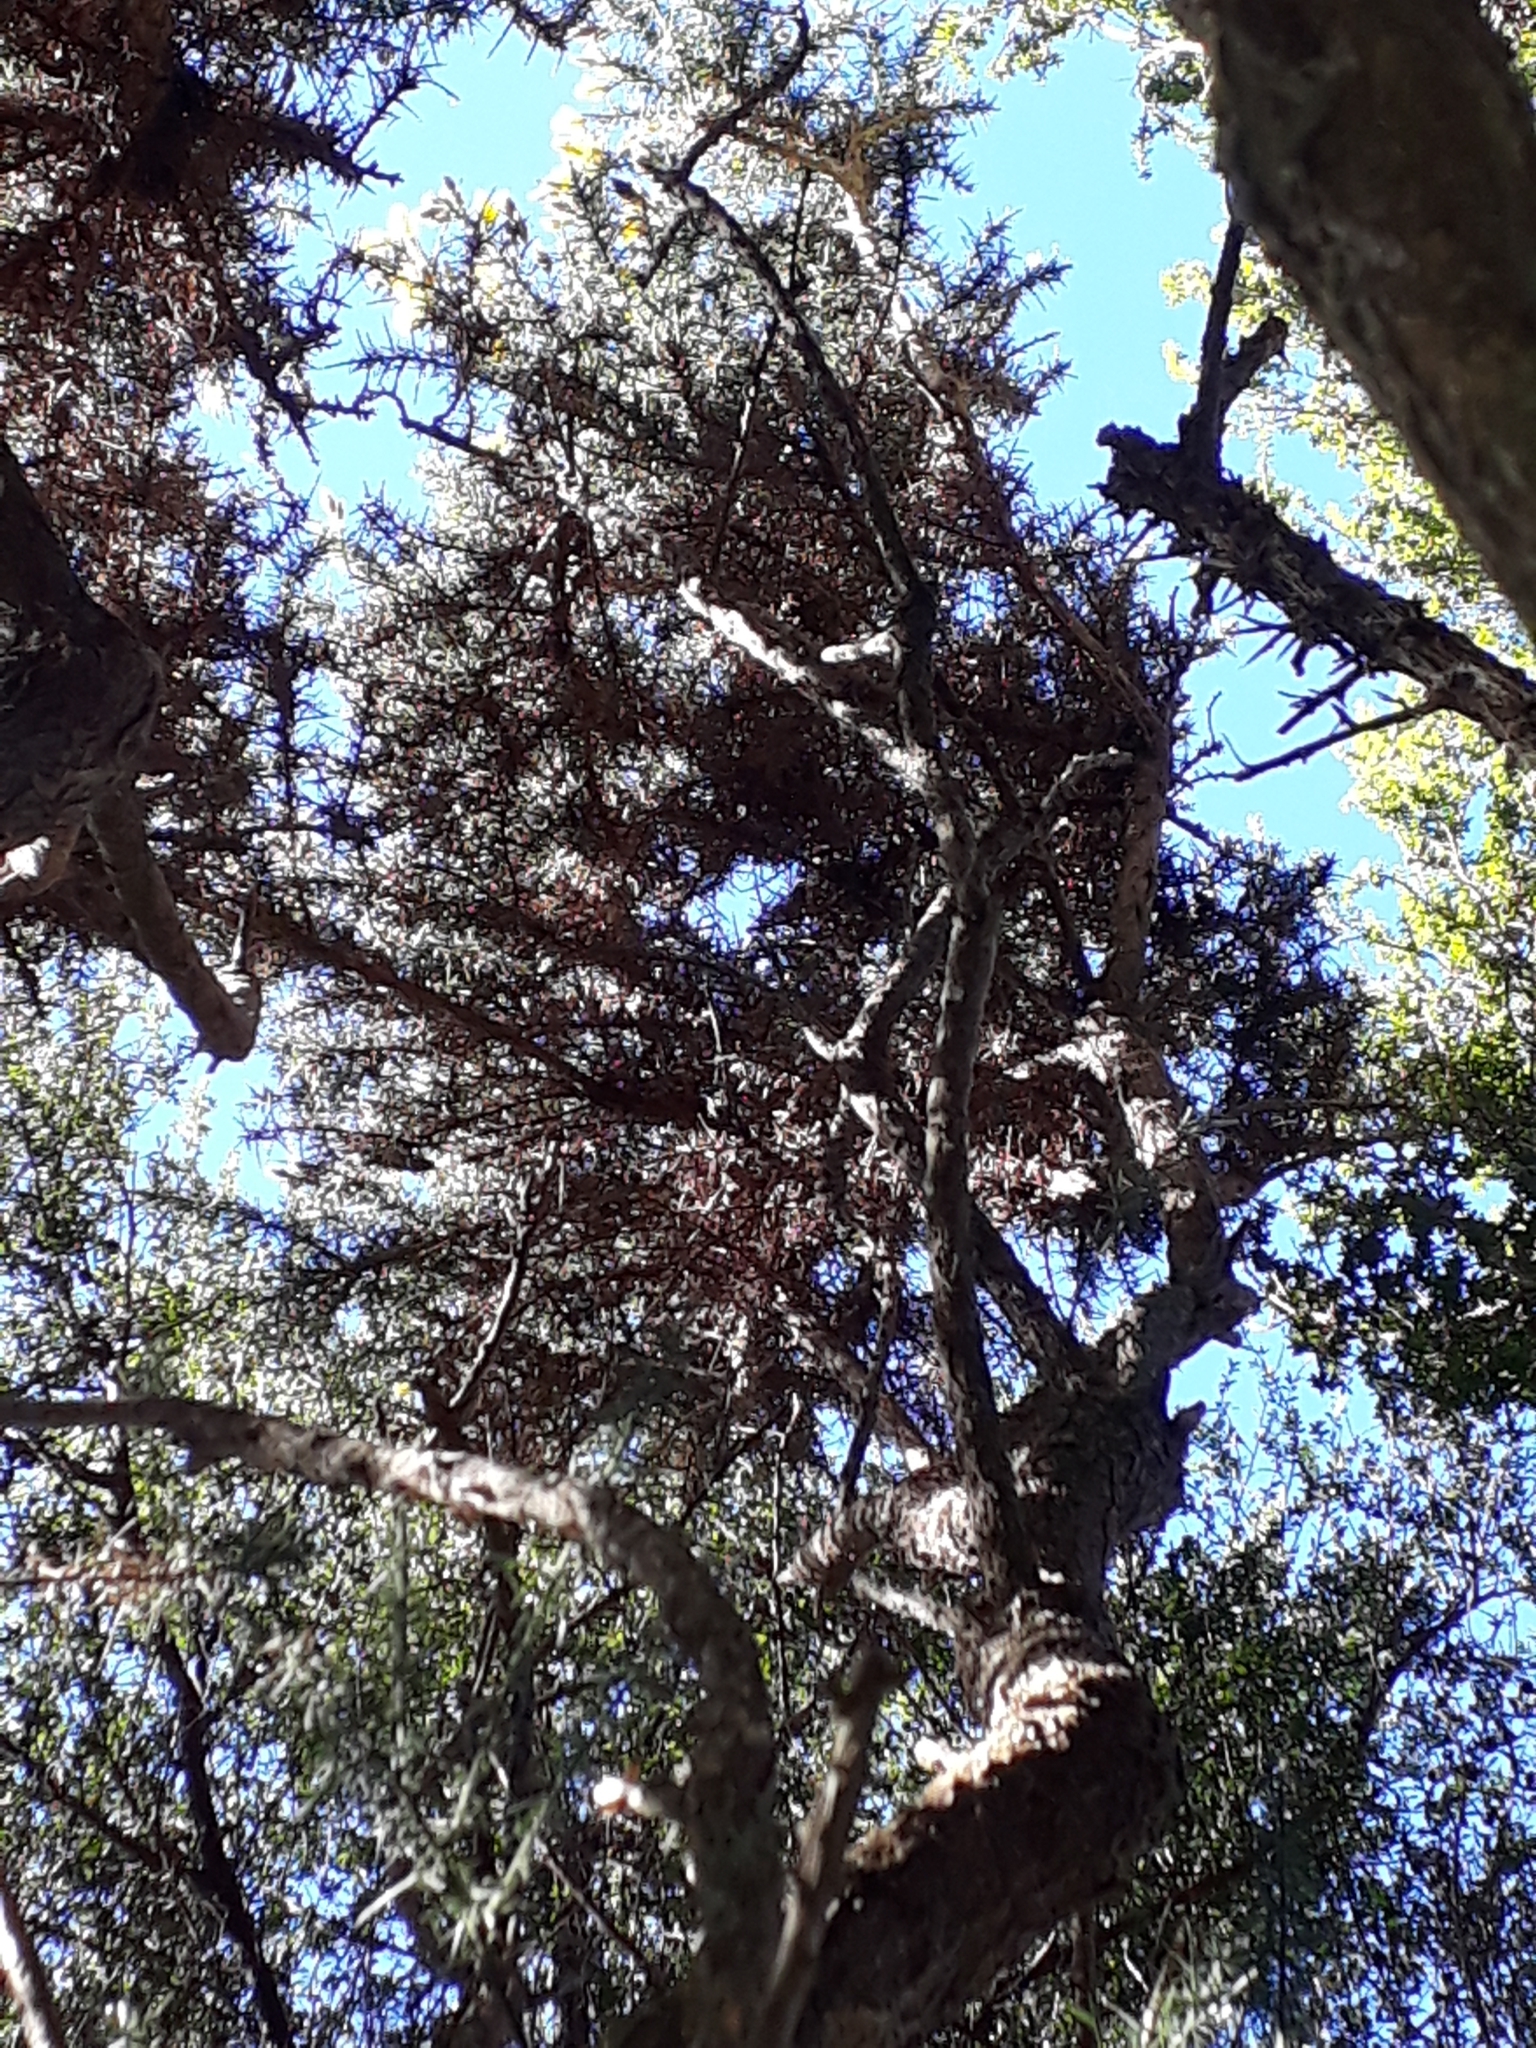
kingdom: Plantae
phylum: Tracheophyta
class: Magnoliopsida
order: Fabales
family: Fabaceae
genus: Ulex
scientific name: Ulex europaeus
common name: Common gorse
